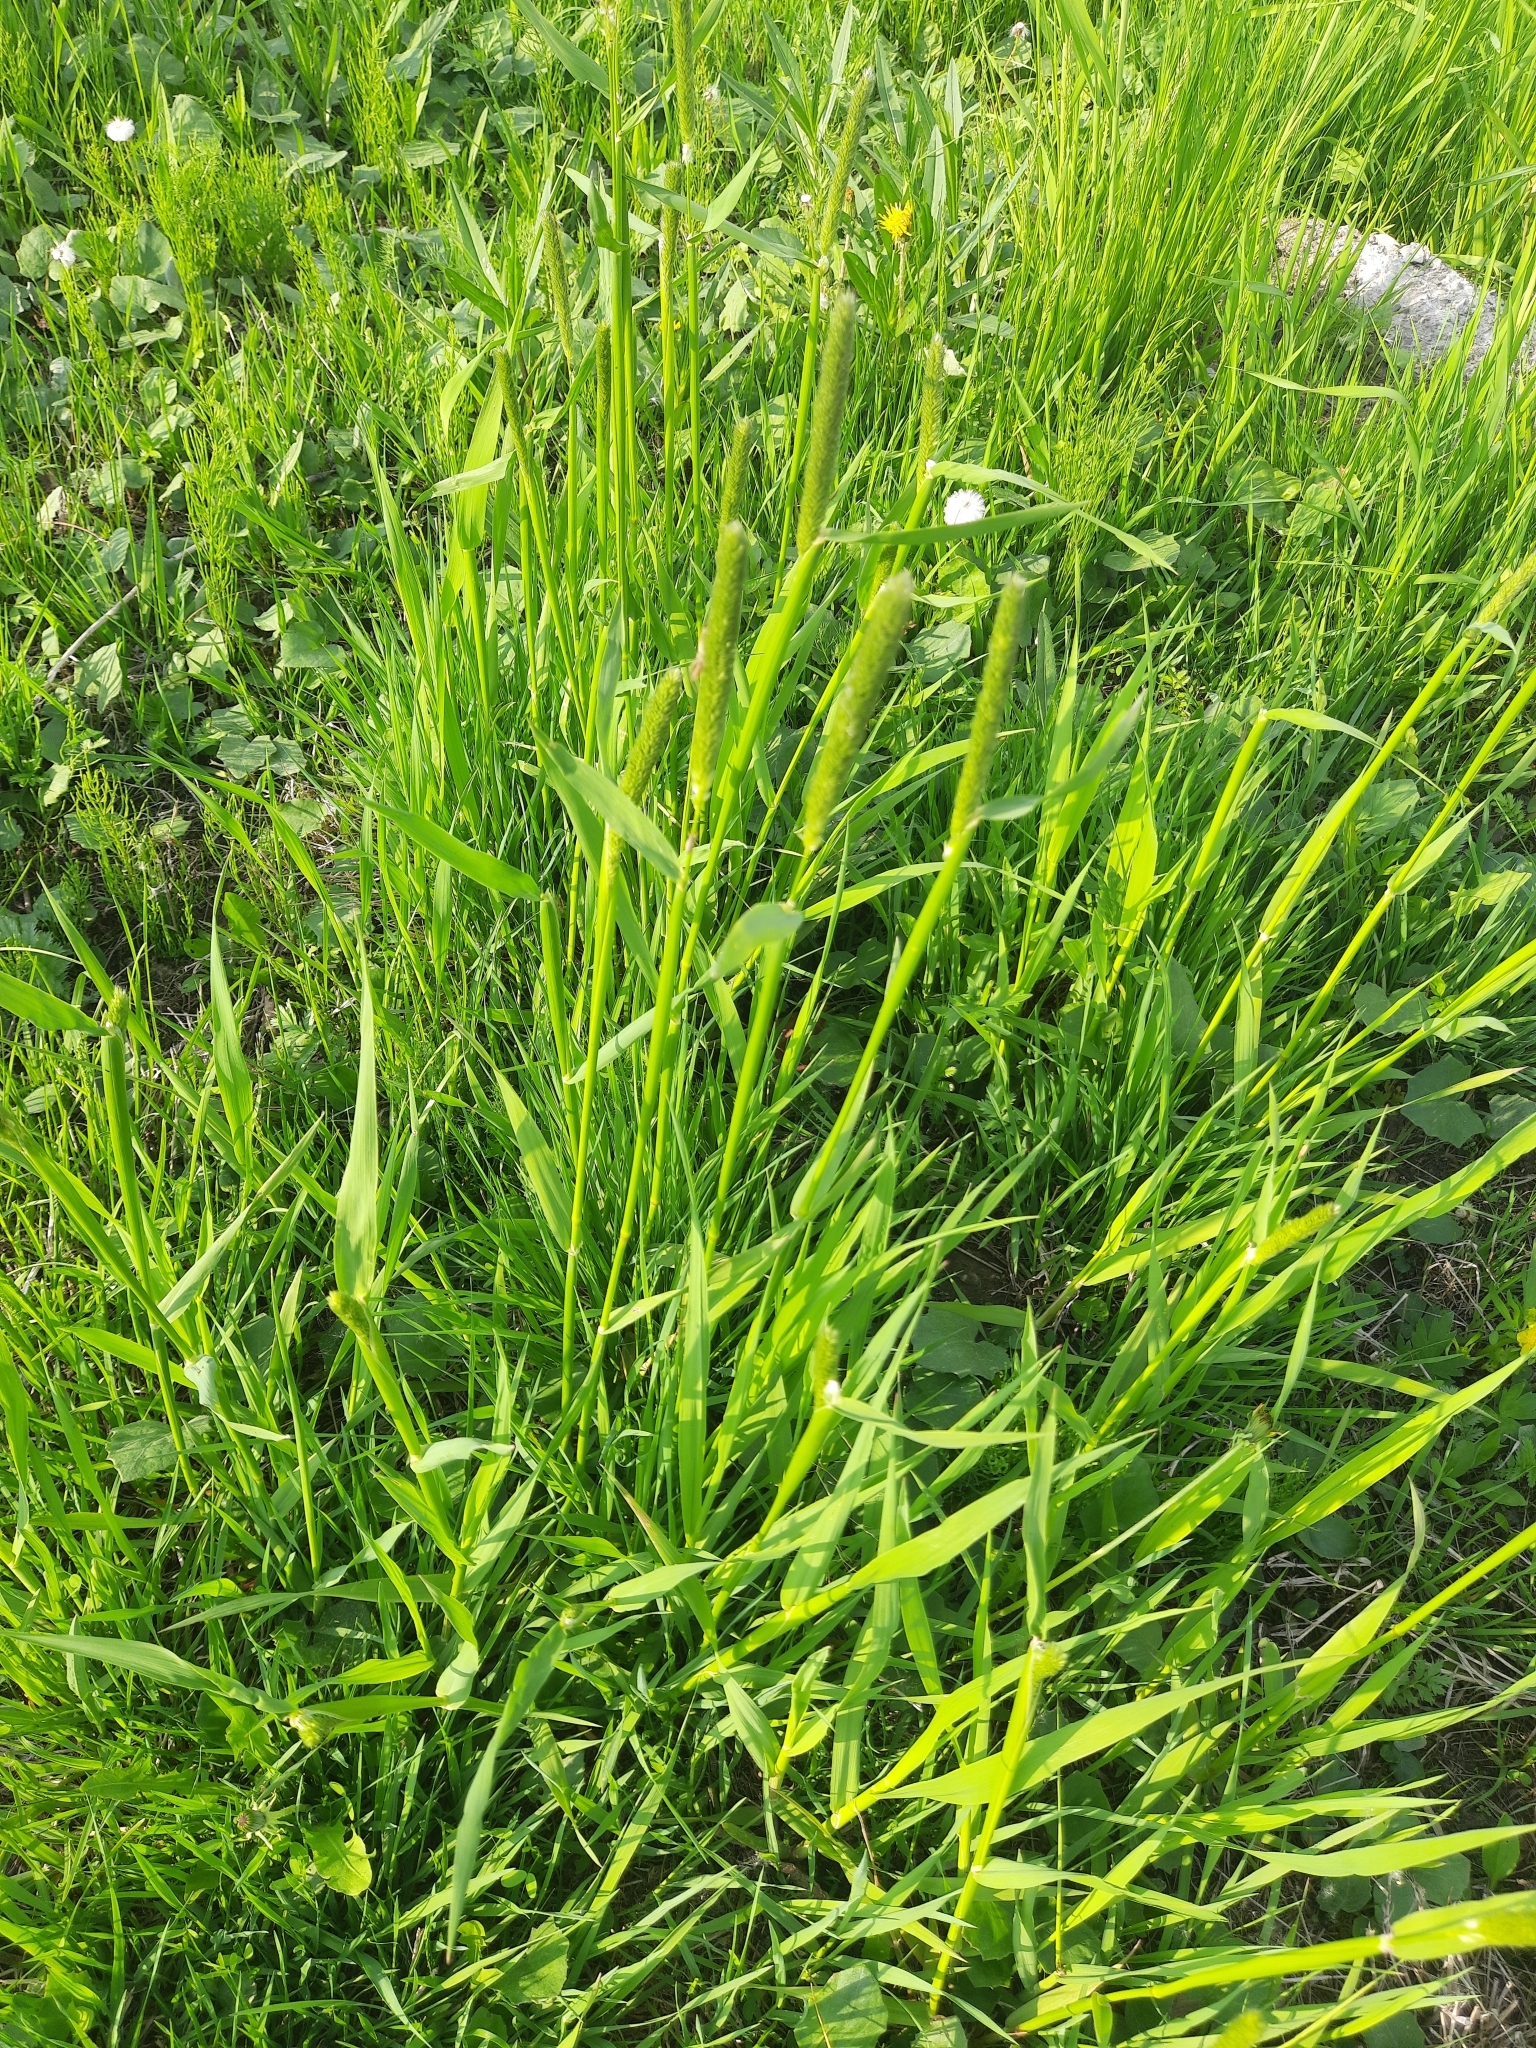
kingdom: Plantae
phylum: Tracheophyta
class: Liliopsida
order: Poales
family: Poaceae
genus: Alopecurus
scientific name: Alopecurus arundinaceus
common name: Creeping meadow foxtail
